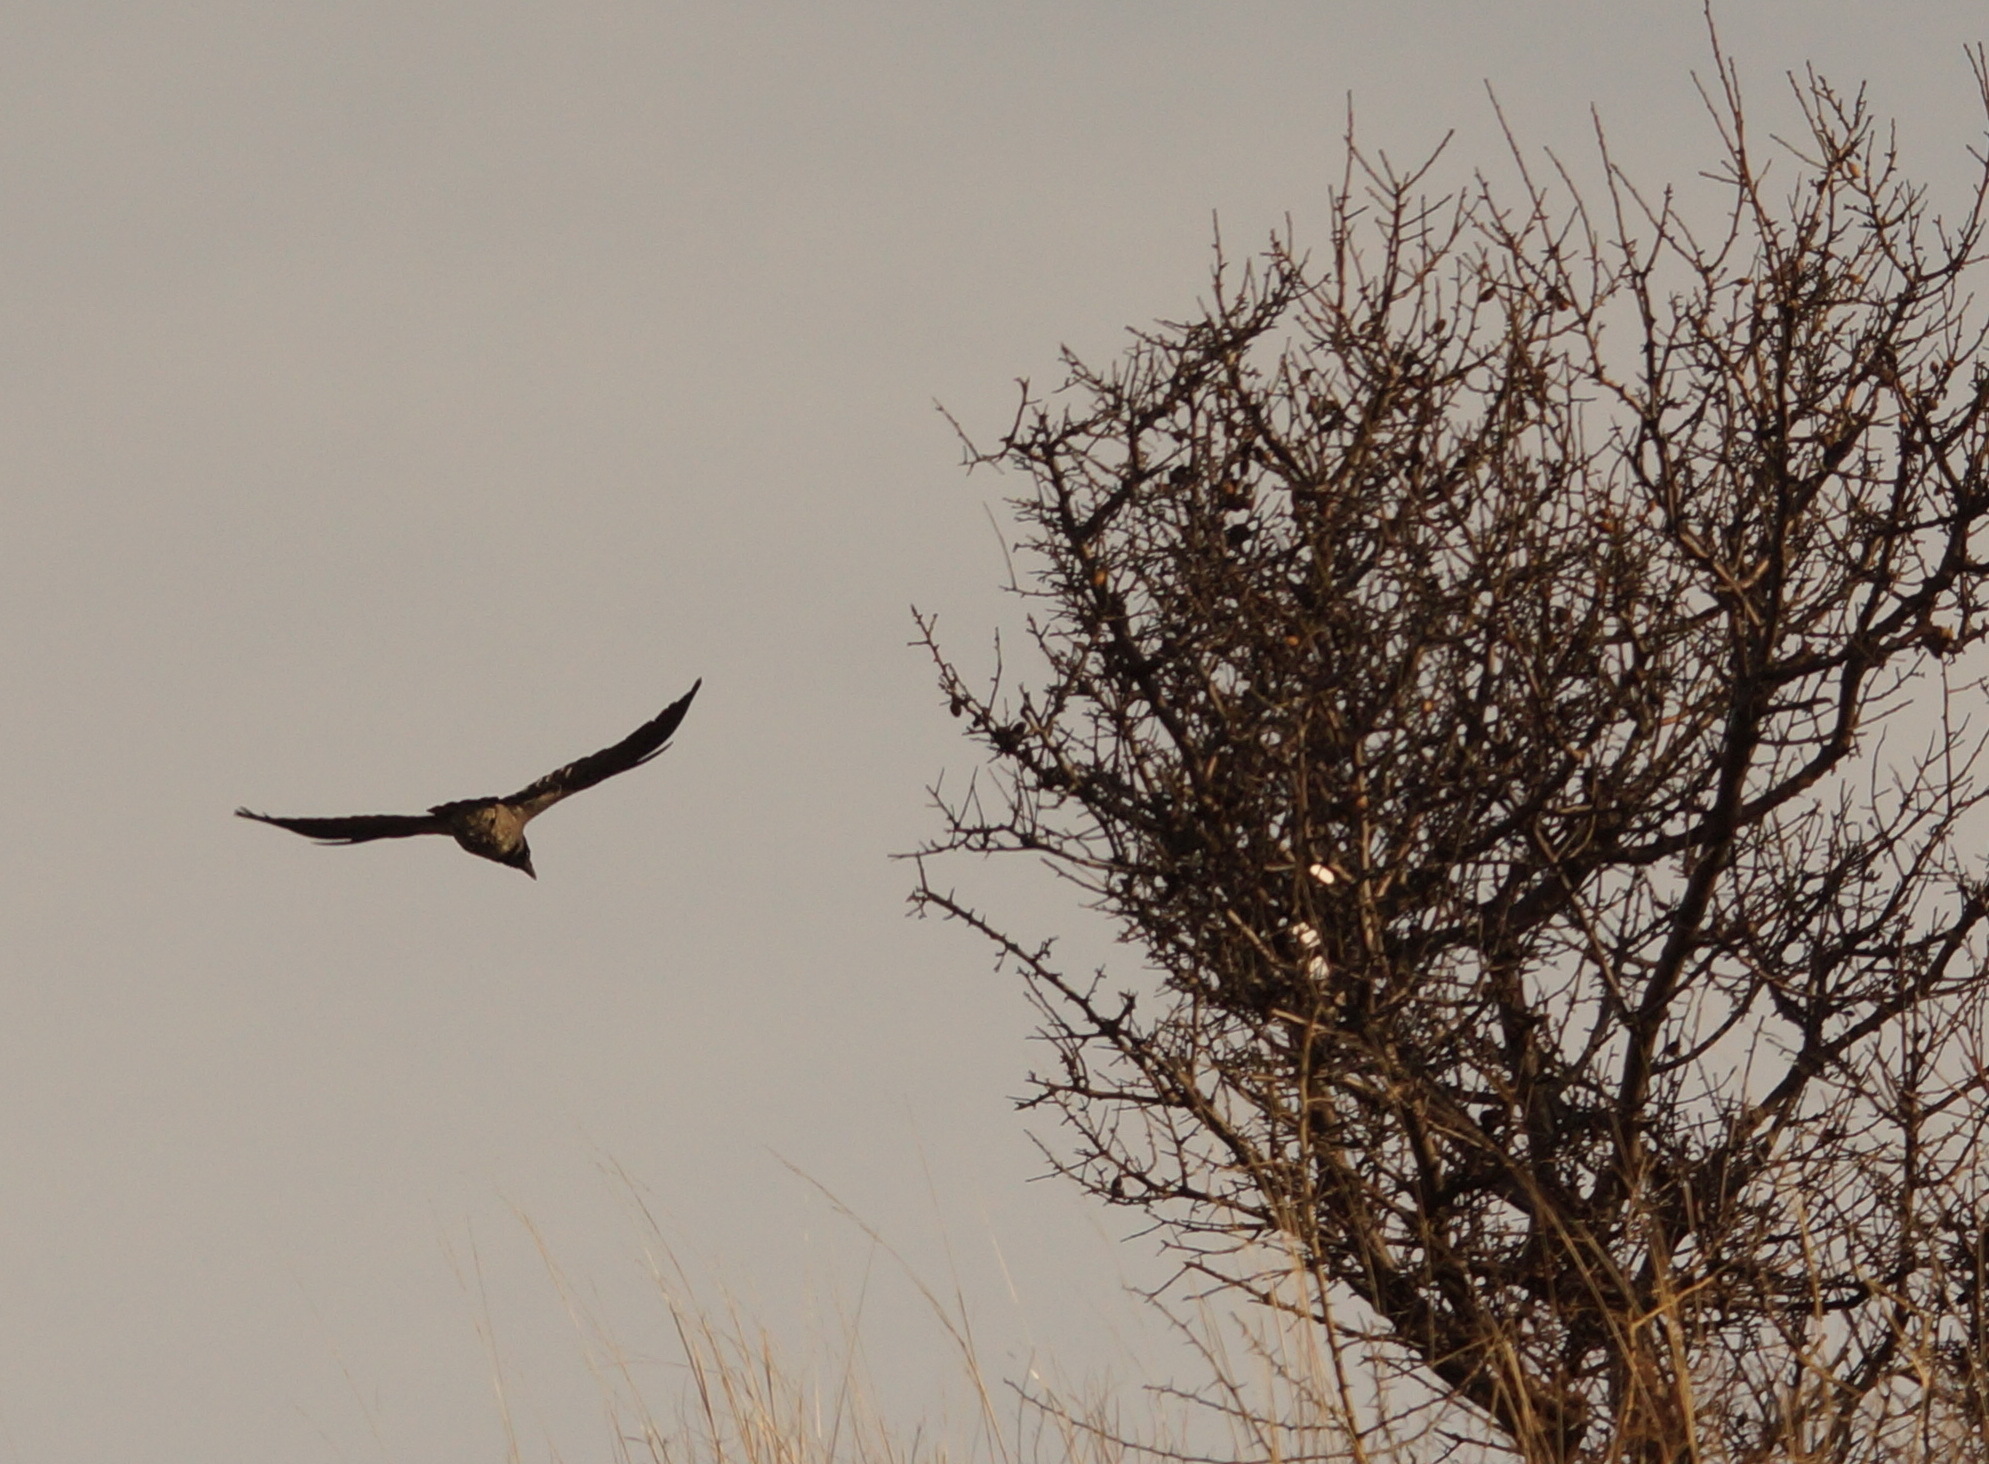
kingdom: Animalia
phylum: Chordata
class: Aves
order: Passeriformes
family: Corvidae
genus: Corvus
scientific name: Corvus cornix
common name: Hooded crow
